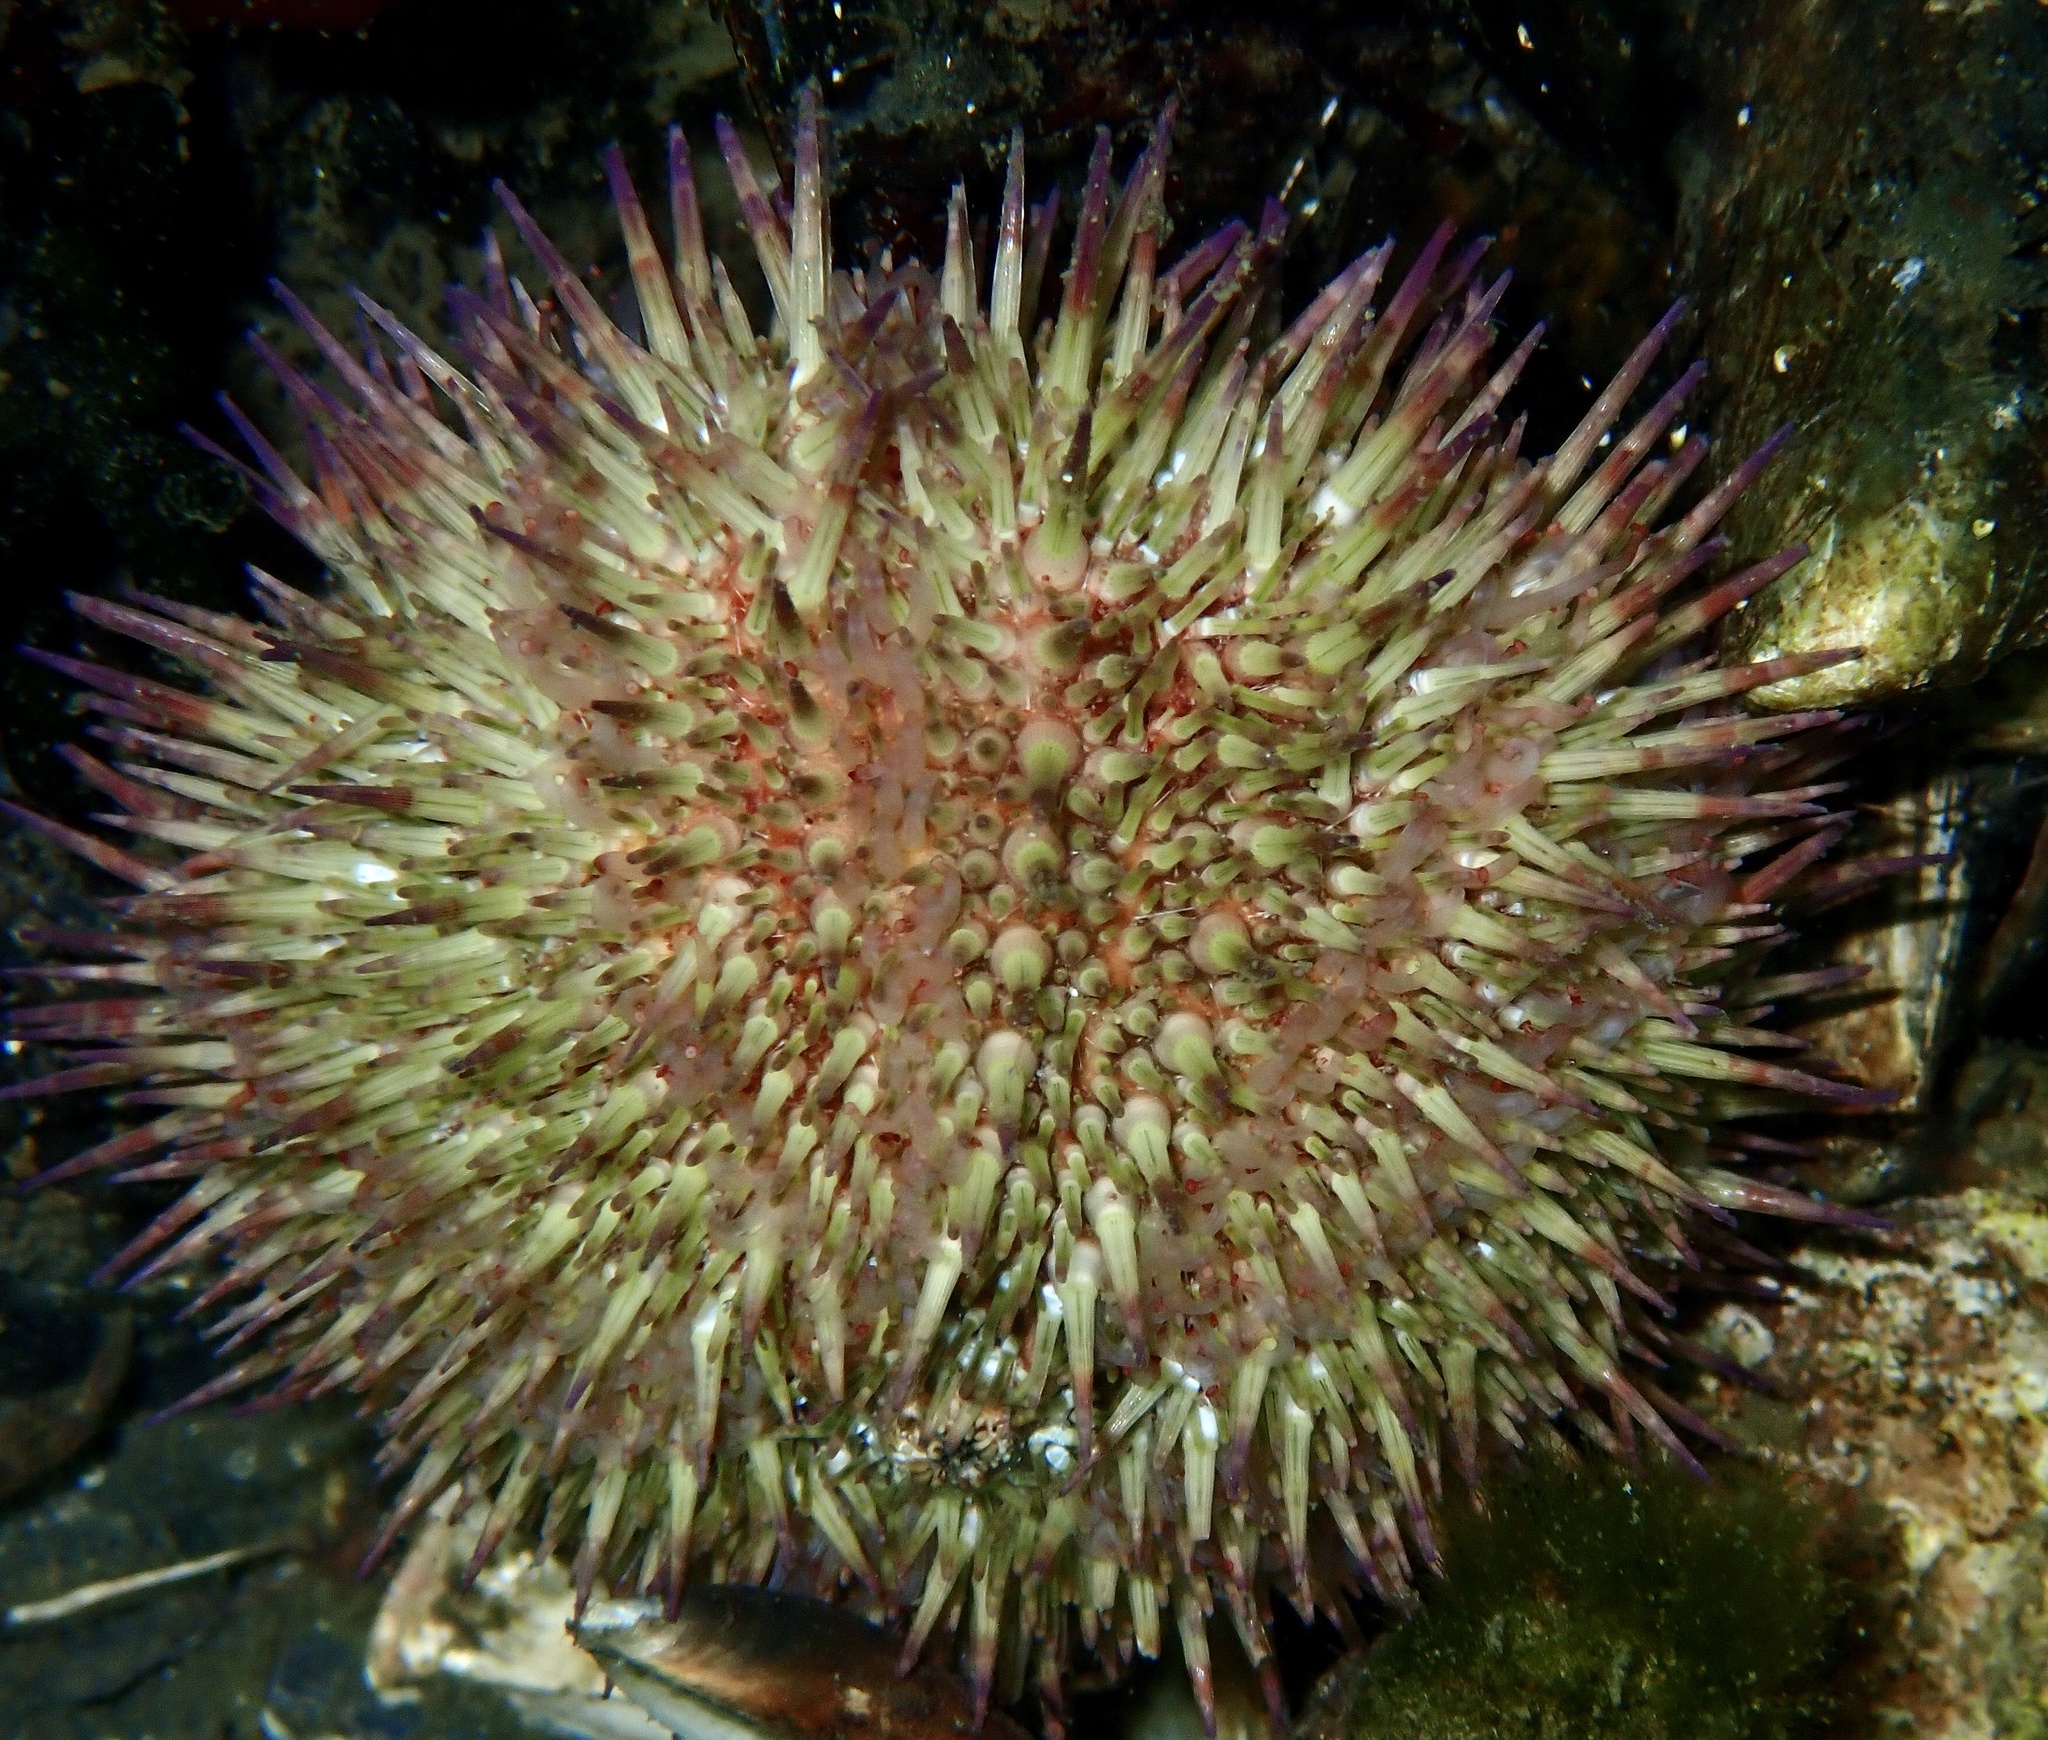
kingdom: Animalia
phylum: Echinodermata
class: Echinoidea
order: Camarodonta
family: Parechinidae
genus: Psammechinus
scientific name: Psammechinus miliaris
